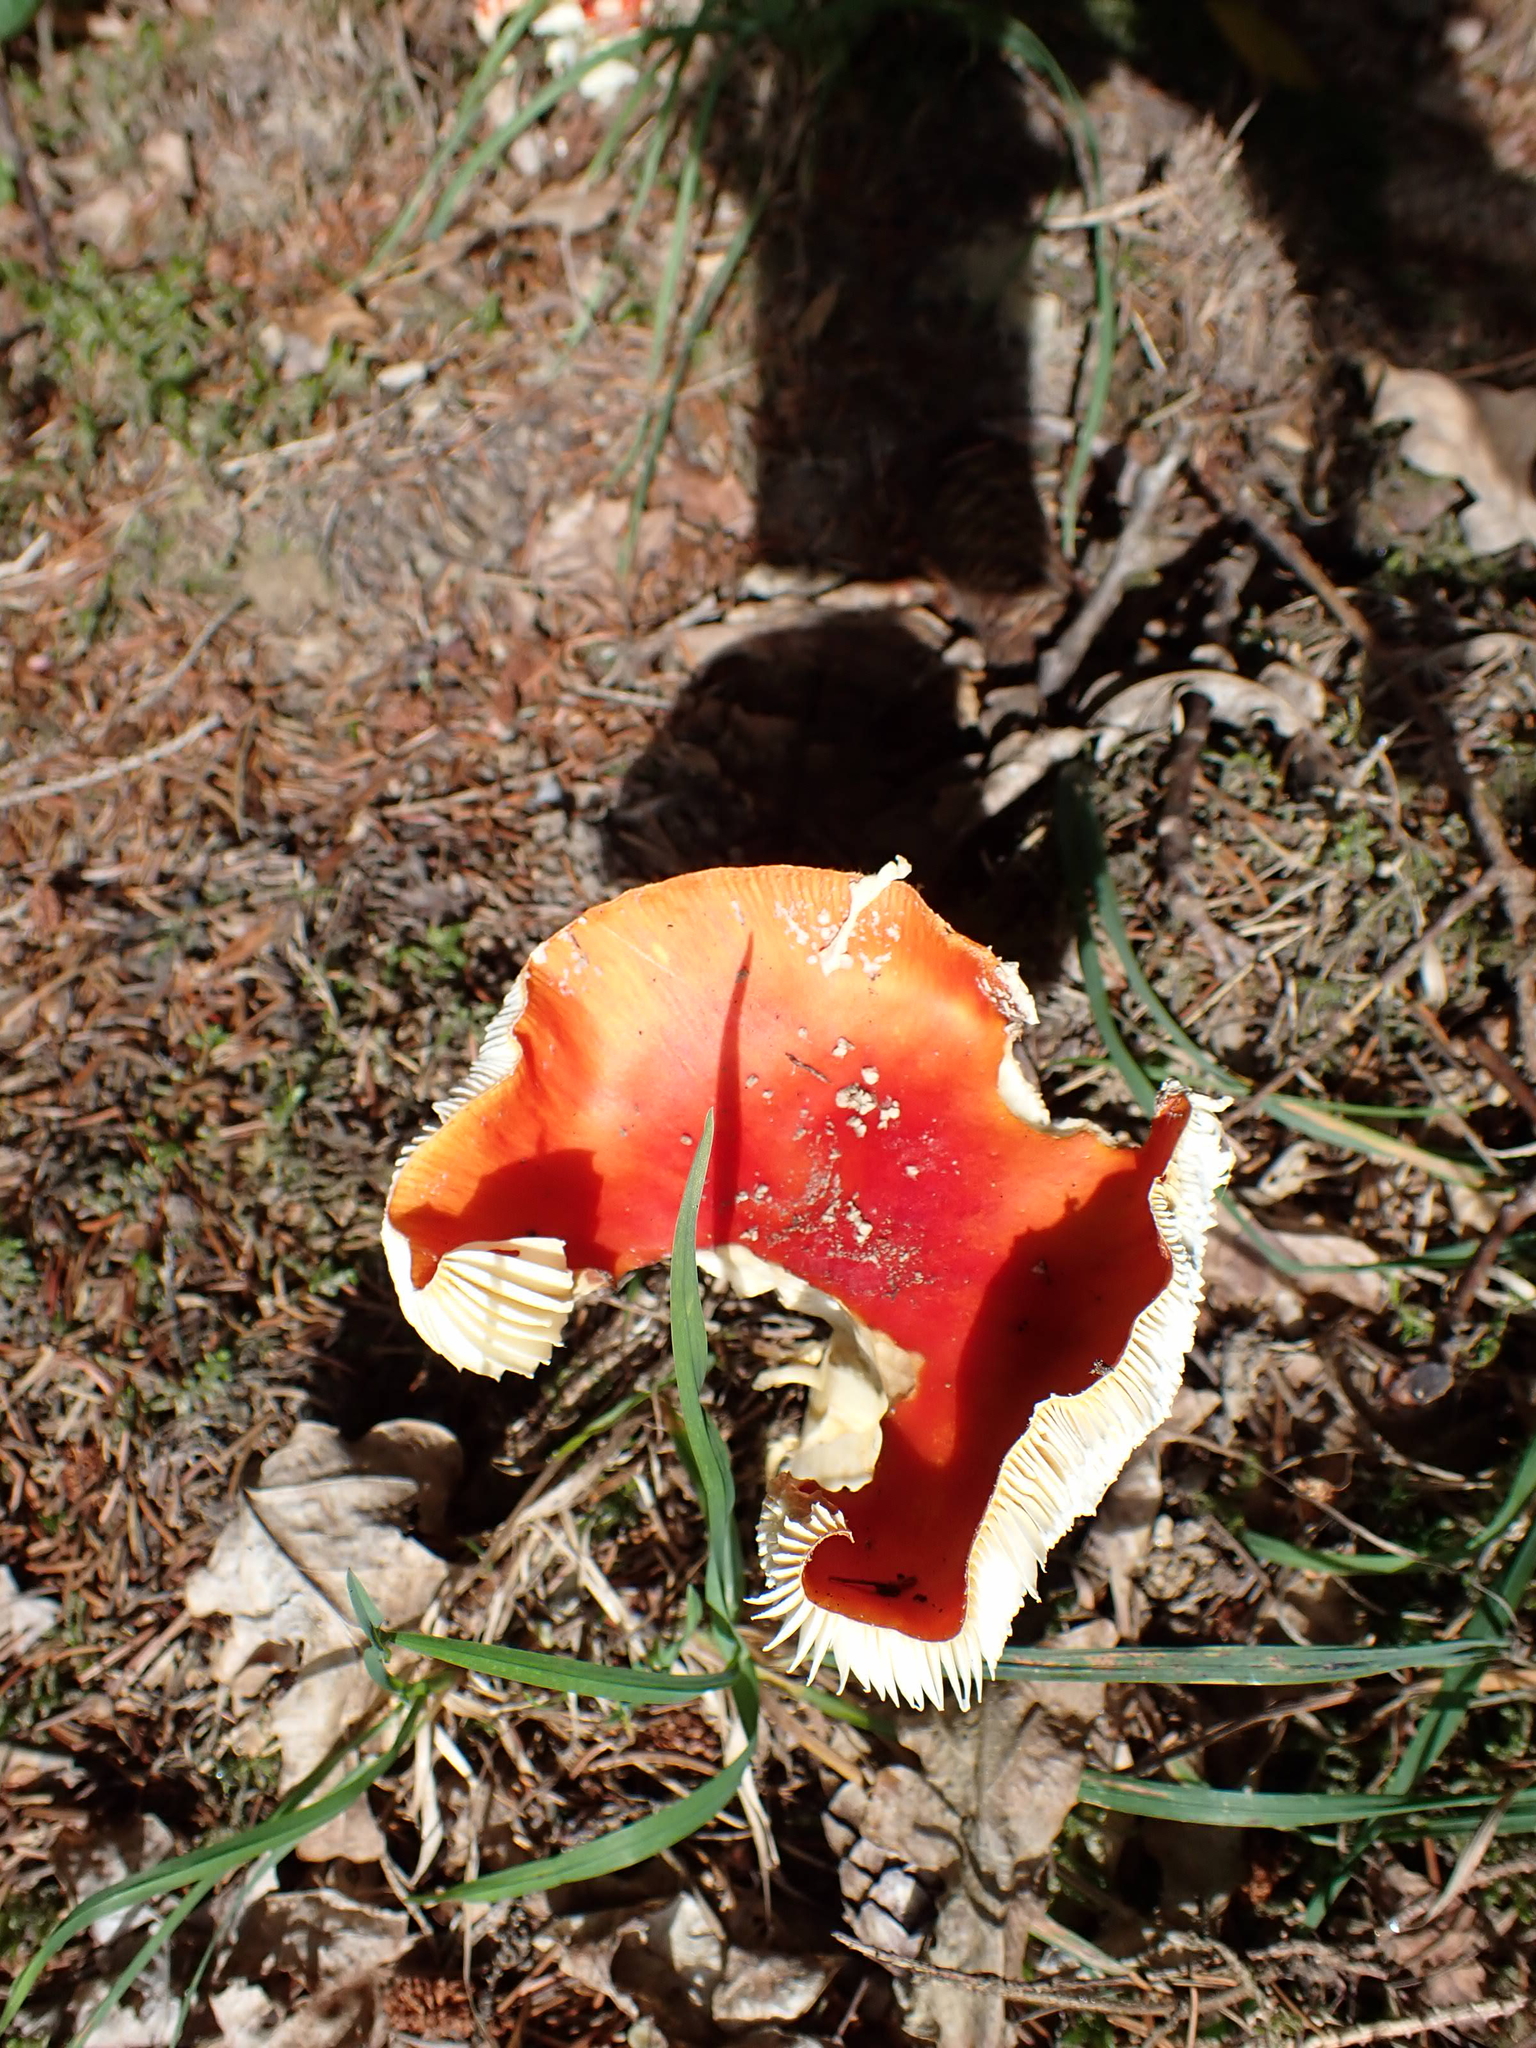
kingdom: Fungi
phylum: Basidiomycota
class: Agaricomycetes
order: Agaricales
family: Amanitaceae
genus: Amanita
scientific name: Amanita muscaria
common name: Fly agaric
